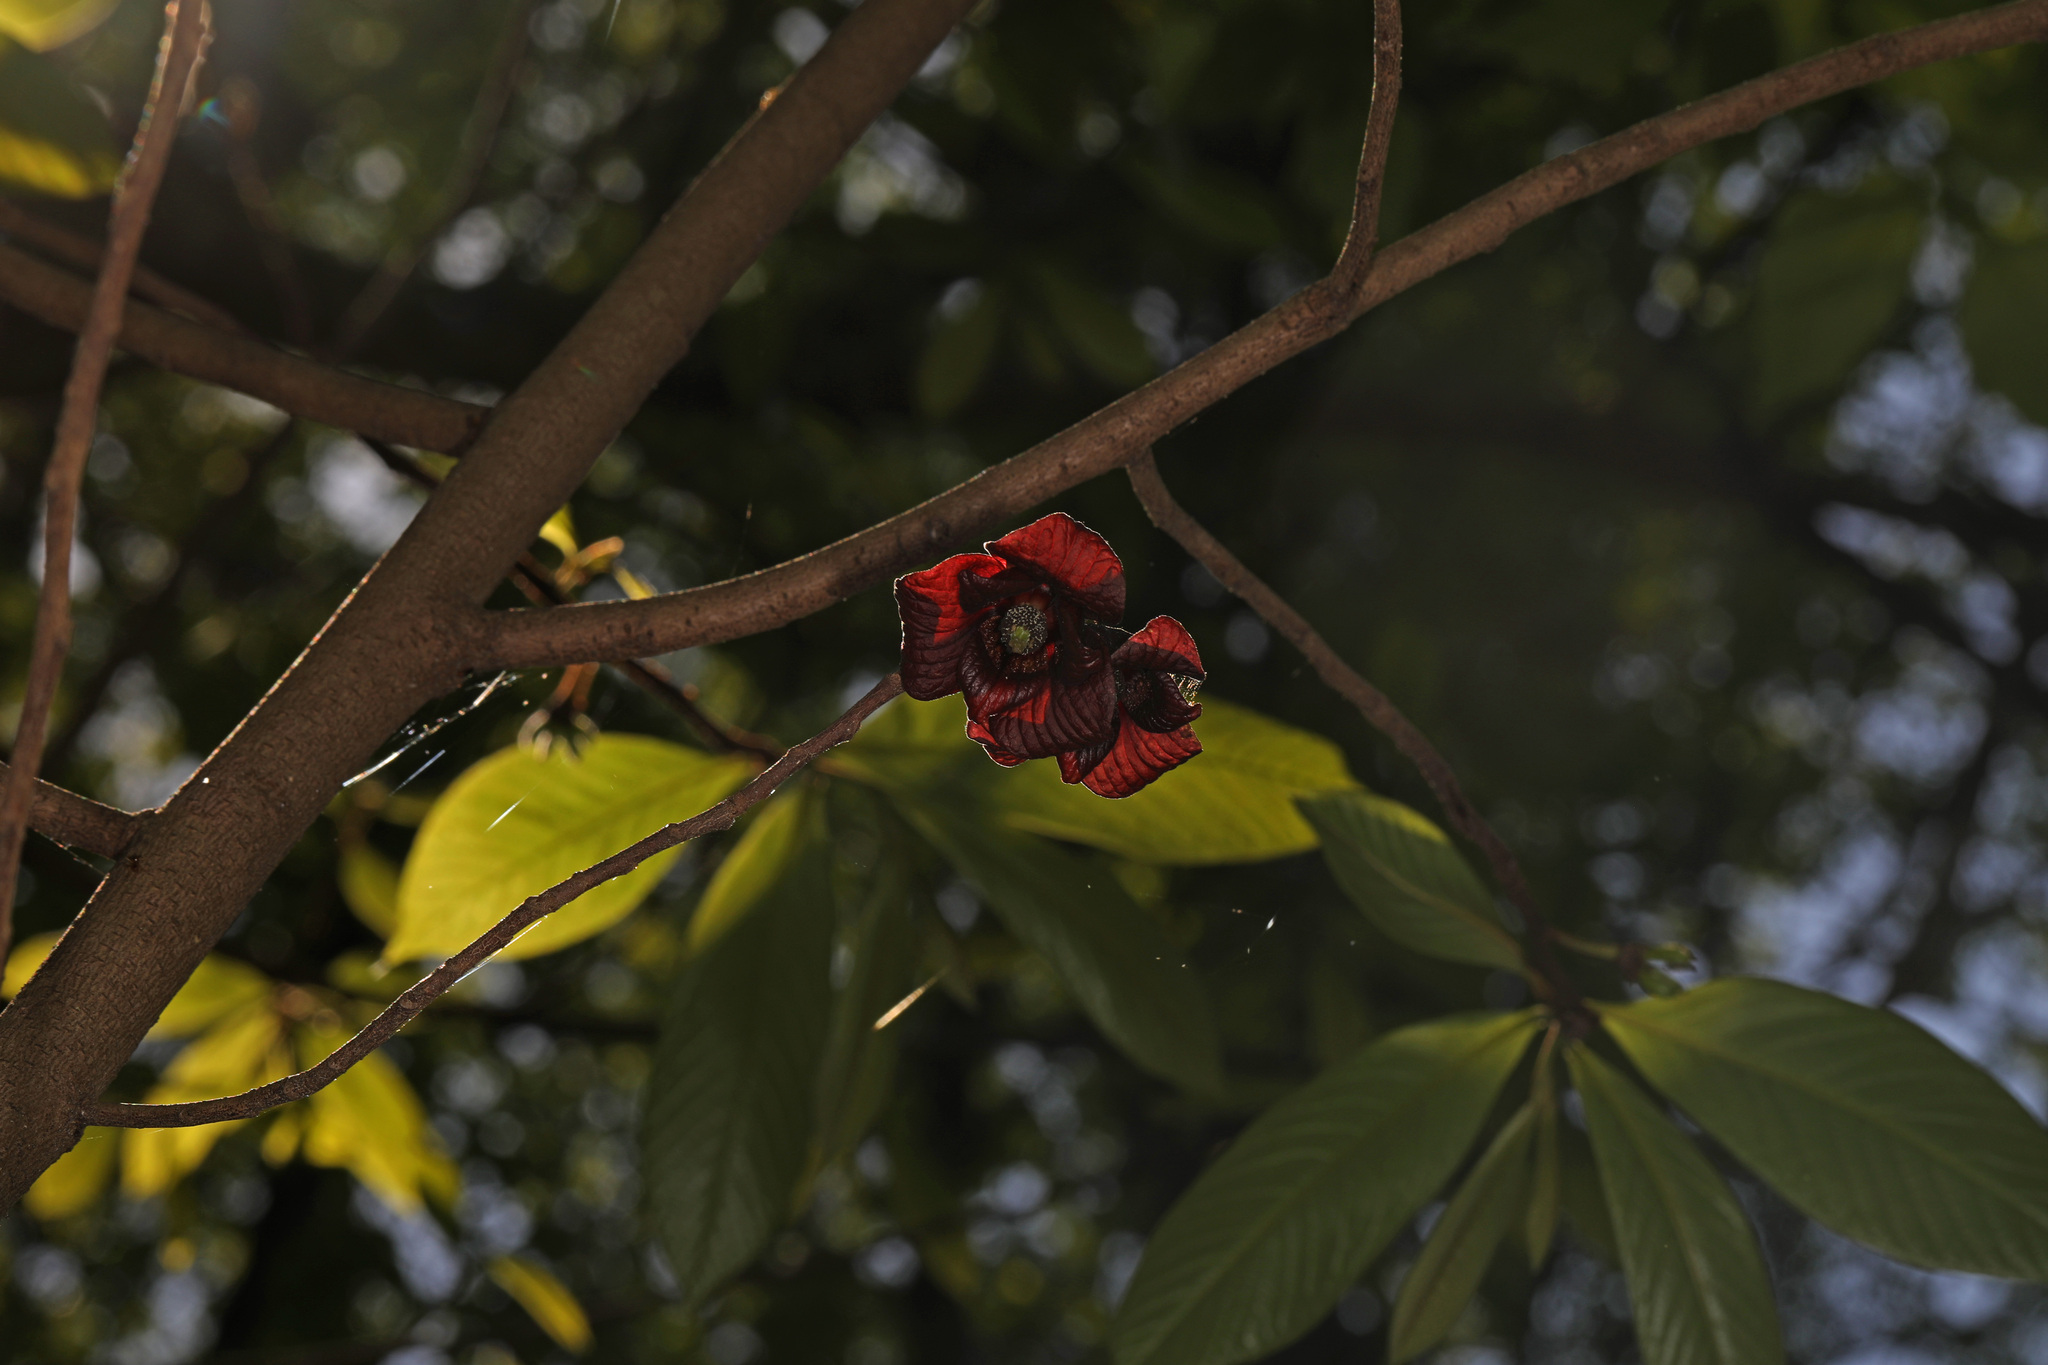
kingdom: Plantae
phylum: Tracheophyta
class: Magnoliopsida
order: Magnoliales
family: Annonaceae
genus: Asimina
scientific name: Asimina triloba
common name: Dog-banana
